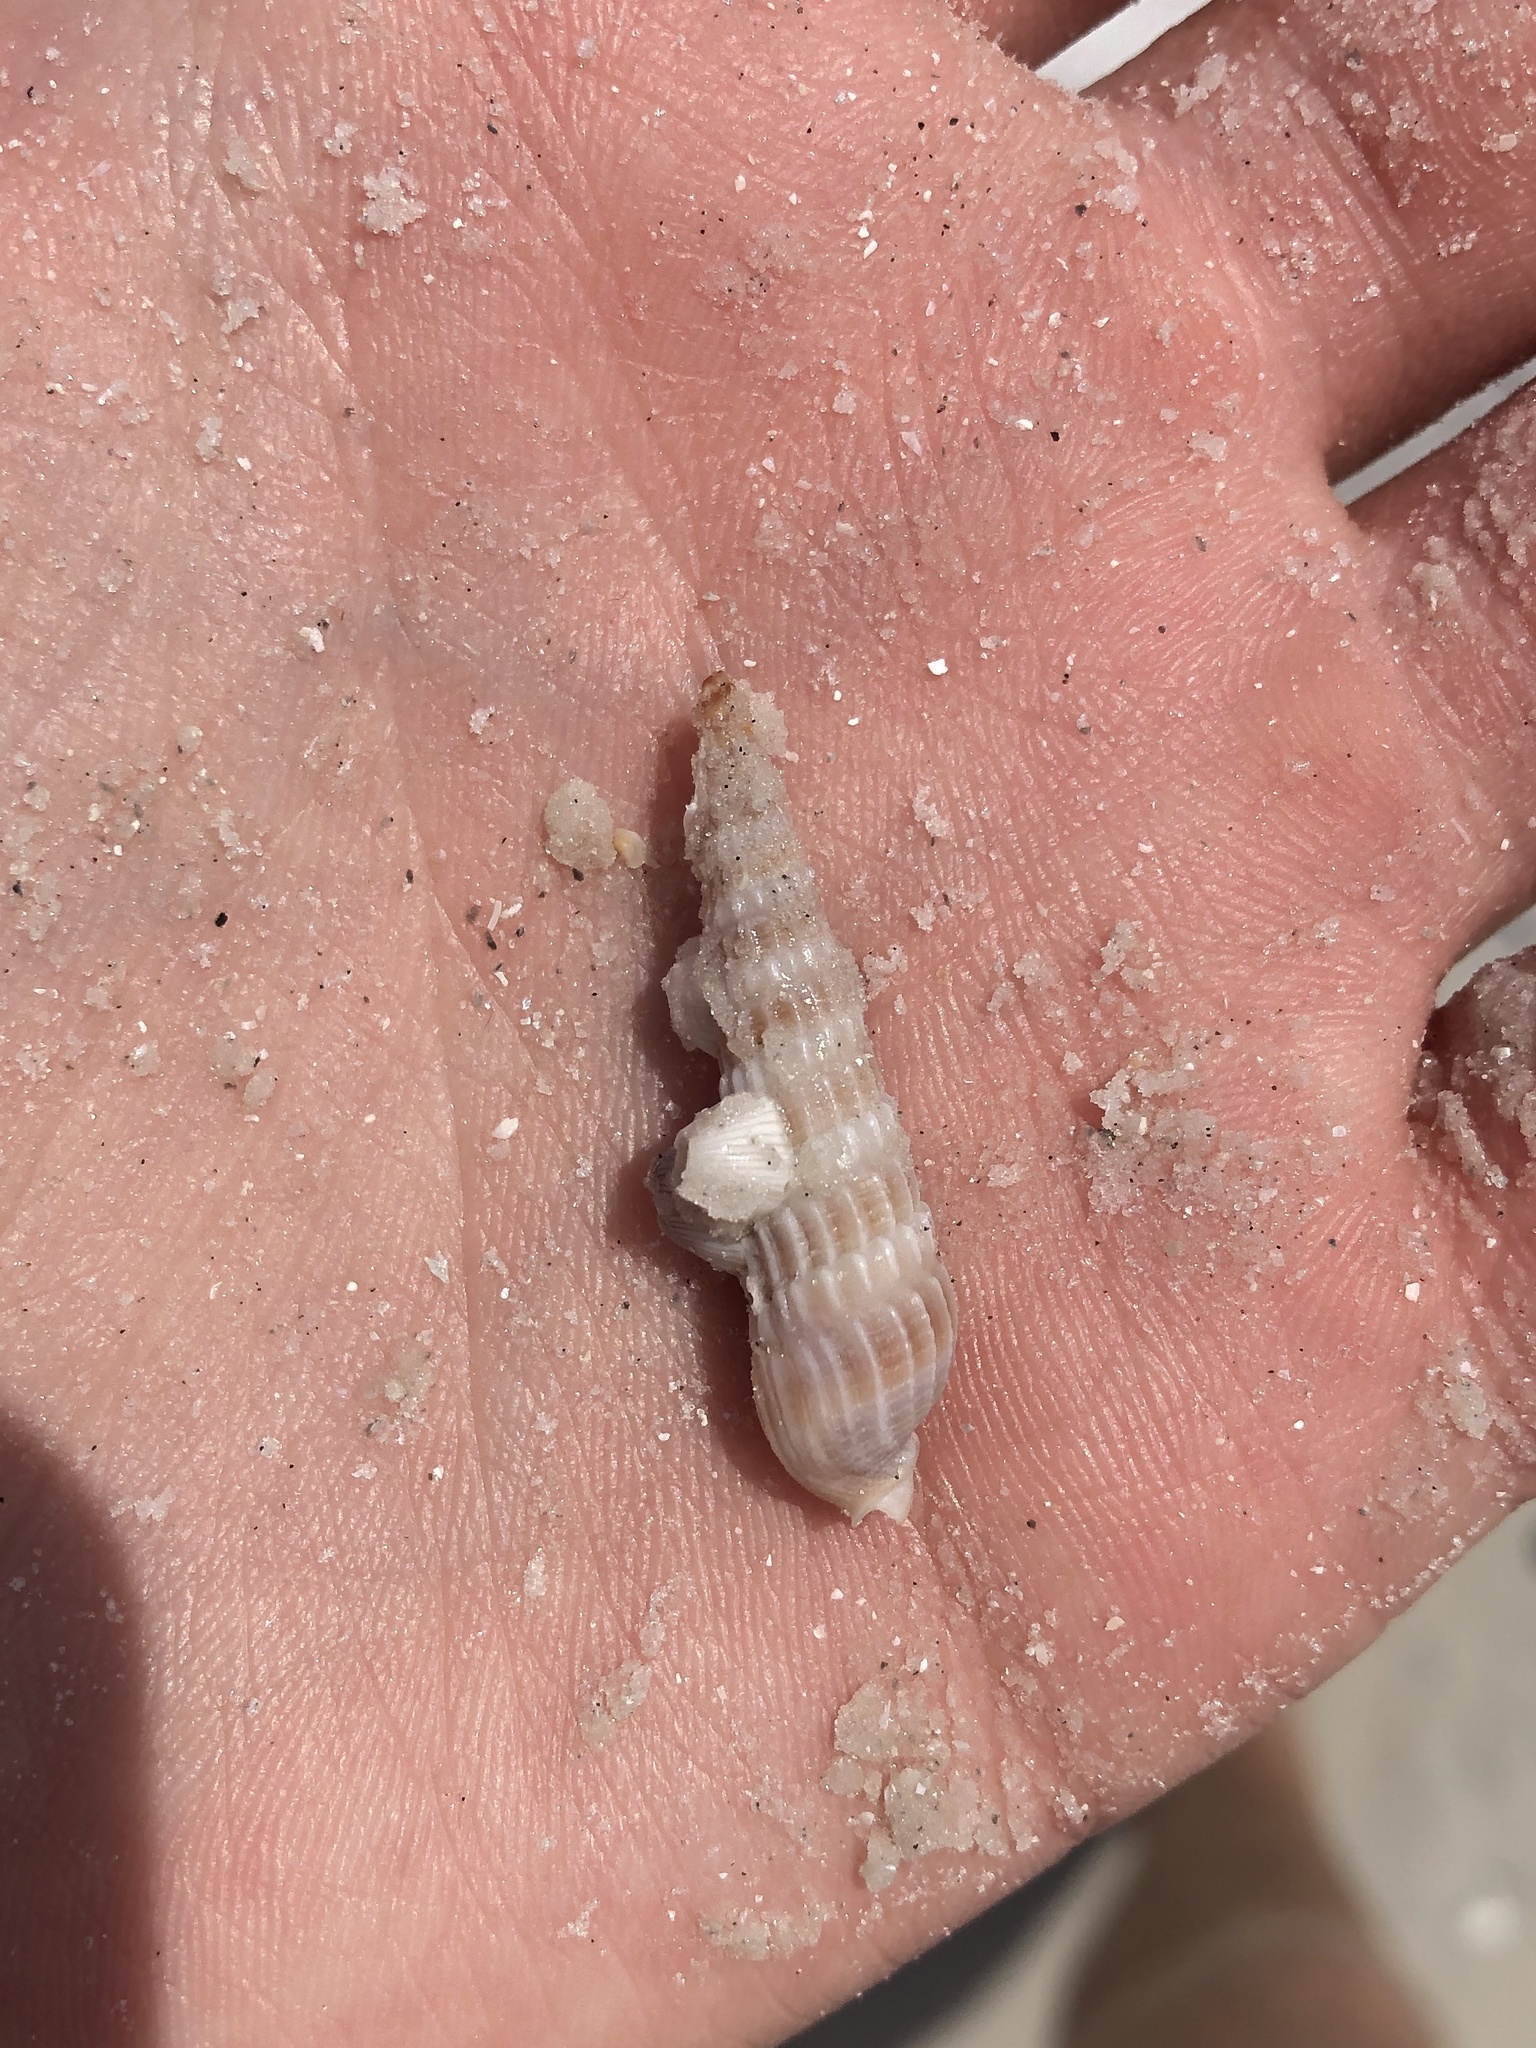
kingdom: Animalia
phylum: Mollusca
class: Gastropoda
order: Neogastropoda
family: Terebridae
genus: Neoterebra
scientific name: Neoterebra dislocata
